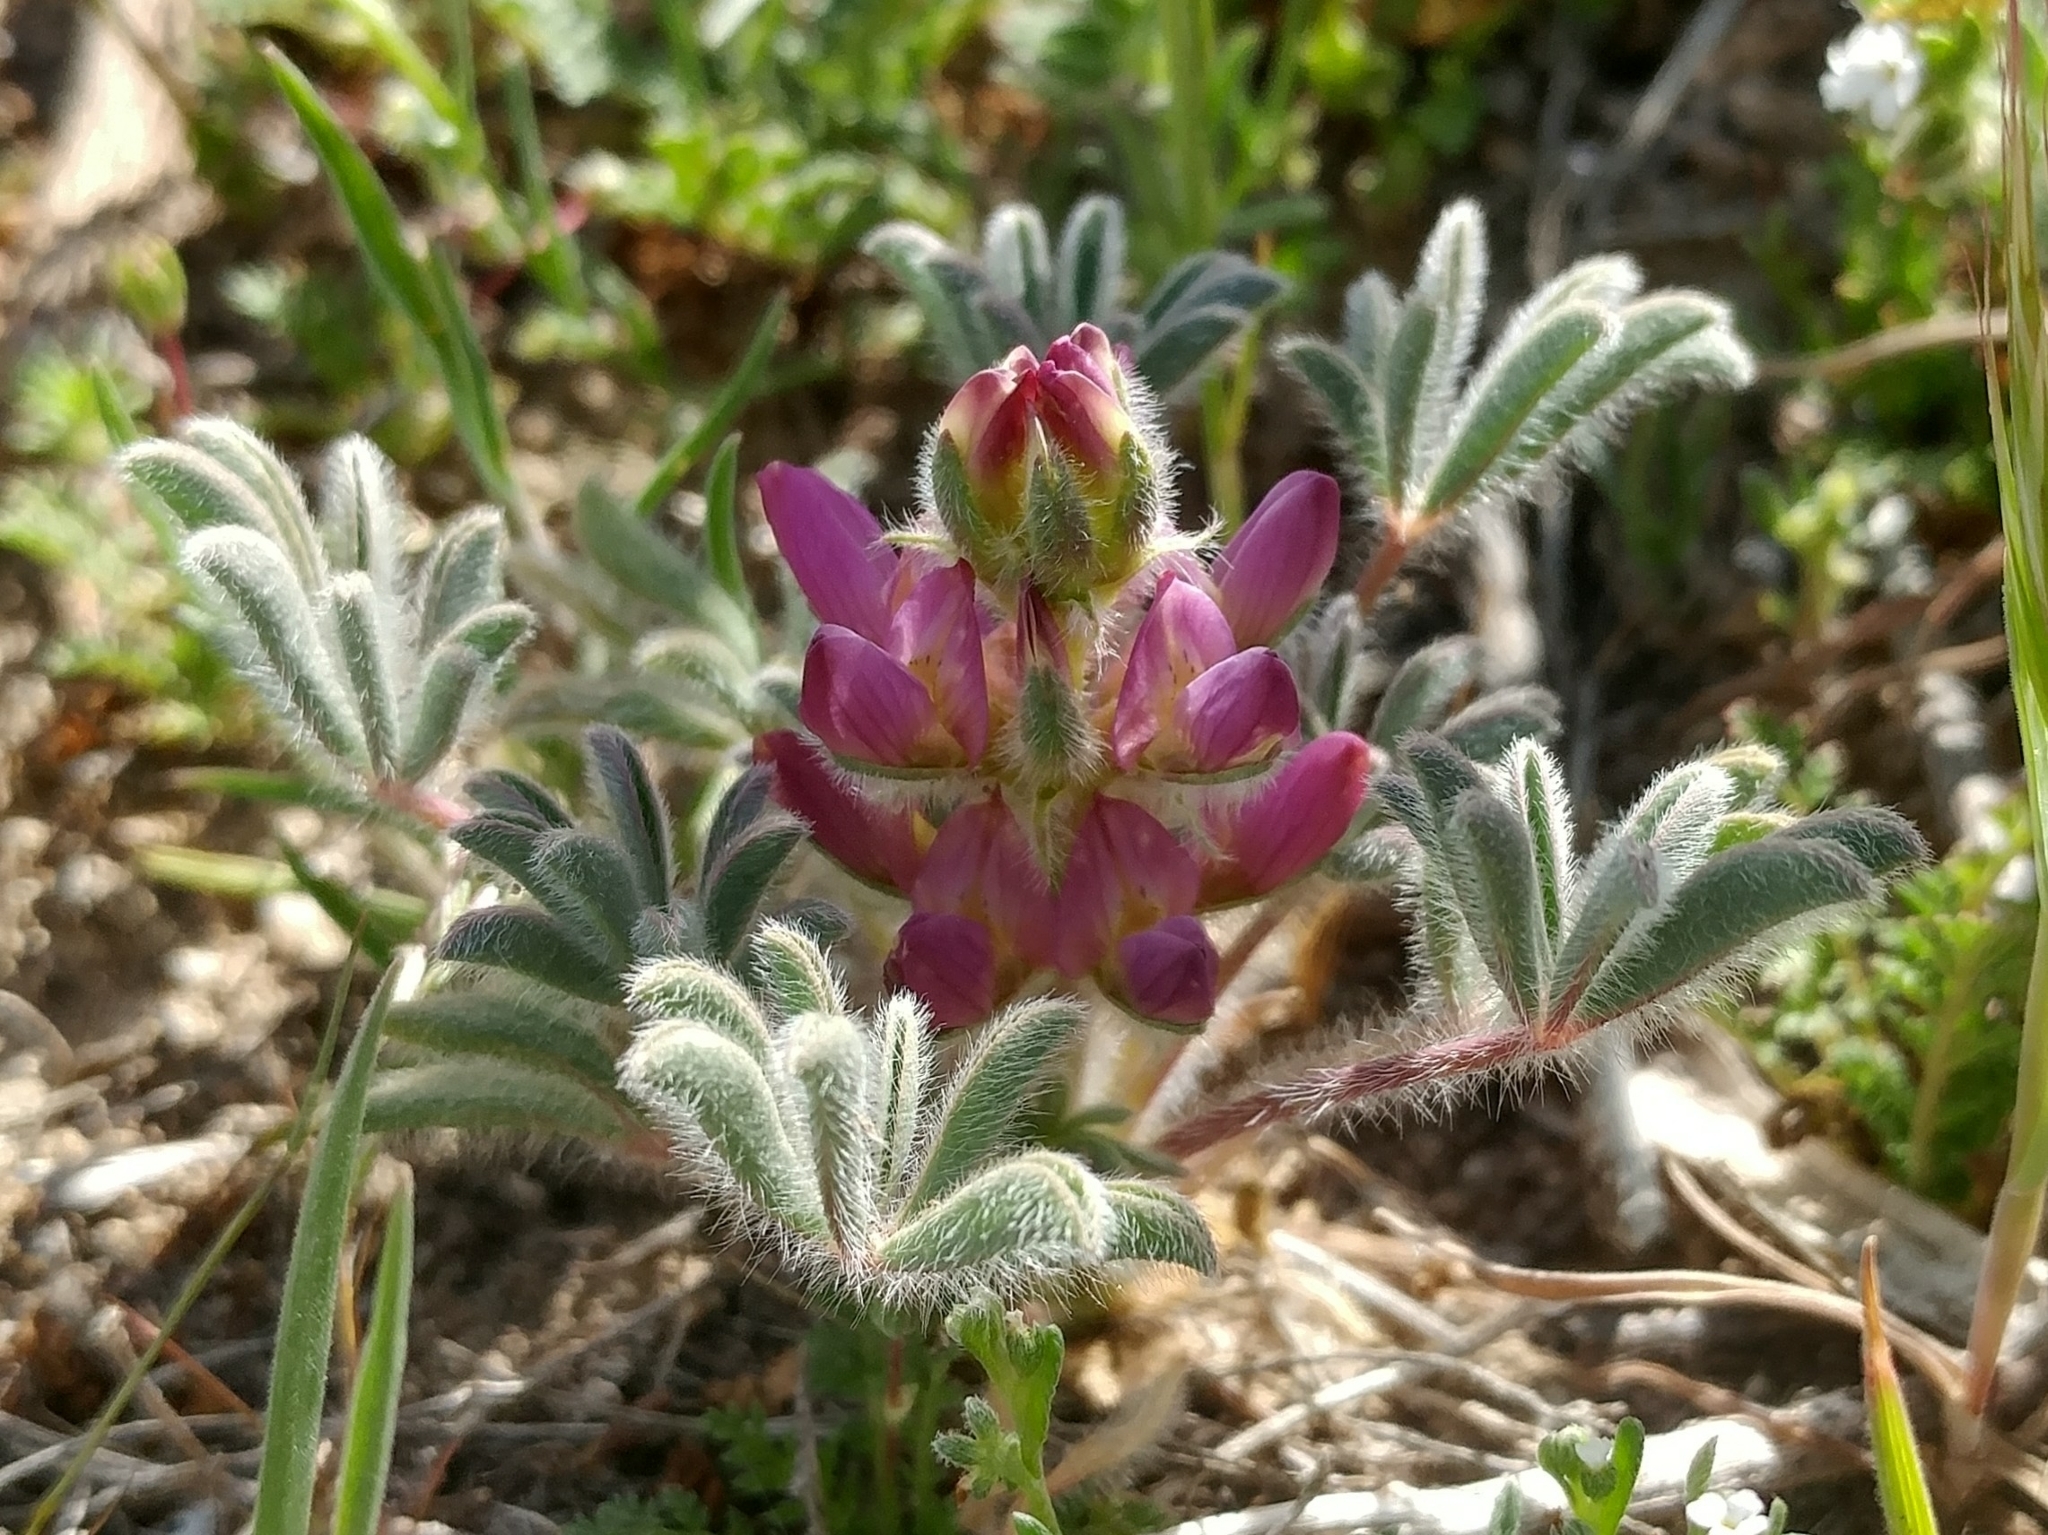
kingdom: Plantae
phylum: Tracheophyta
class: Magnoliopsida
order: Fabales
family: Fabaceae
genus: Lupinus
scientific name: Lupinus microcarpus
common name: Chick lupine
